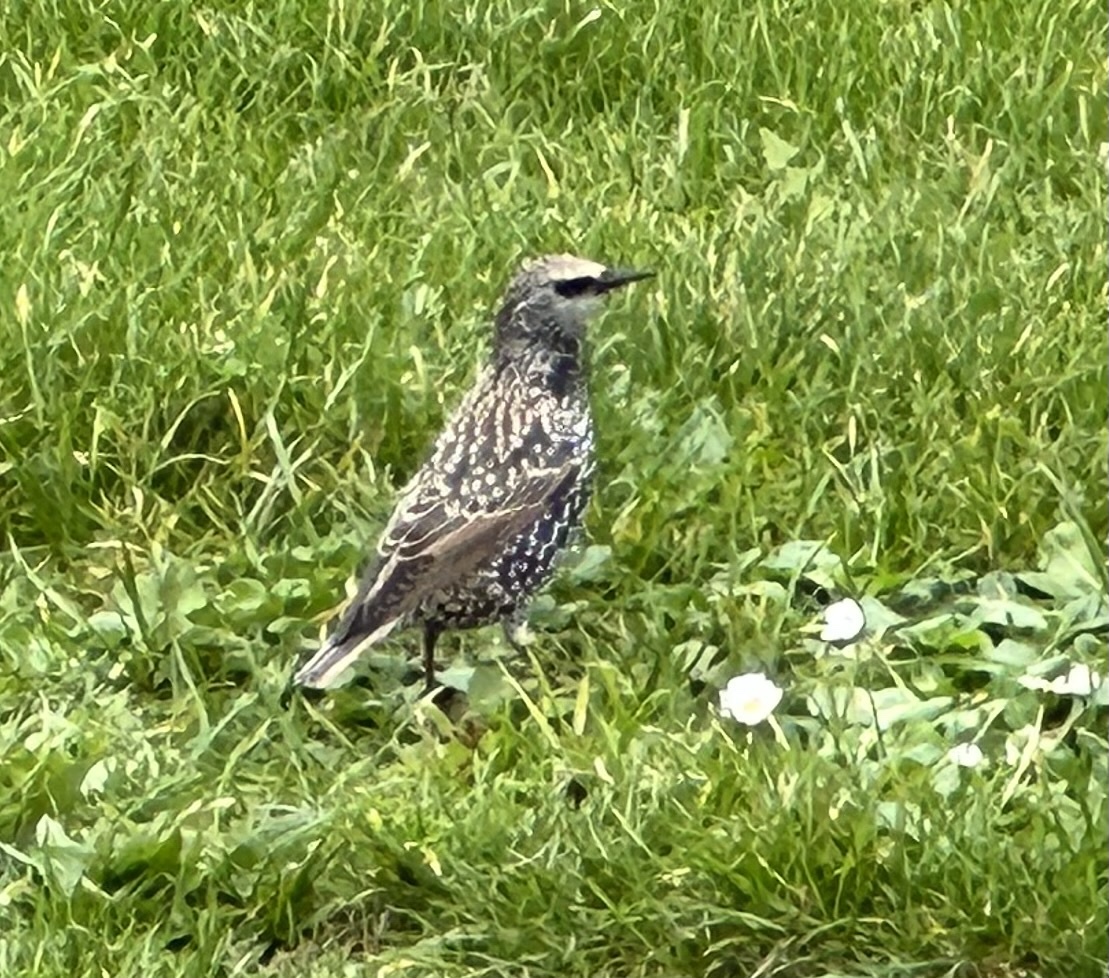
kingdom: Animalia
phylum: Chordata
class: Aves
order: Passeriformes
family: Sturnidae
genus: Sturnus
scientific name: Sturnus vulgaris
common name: Common starling
